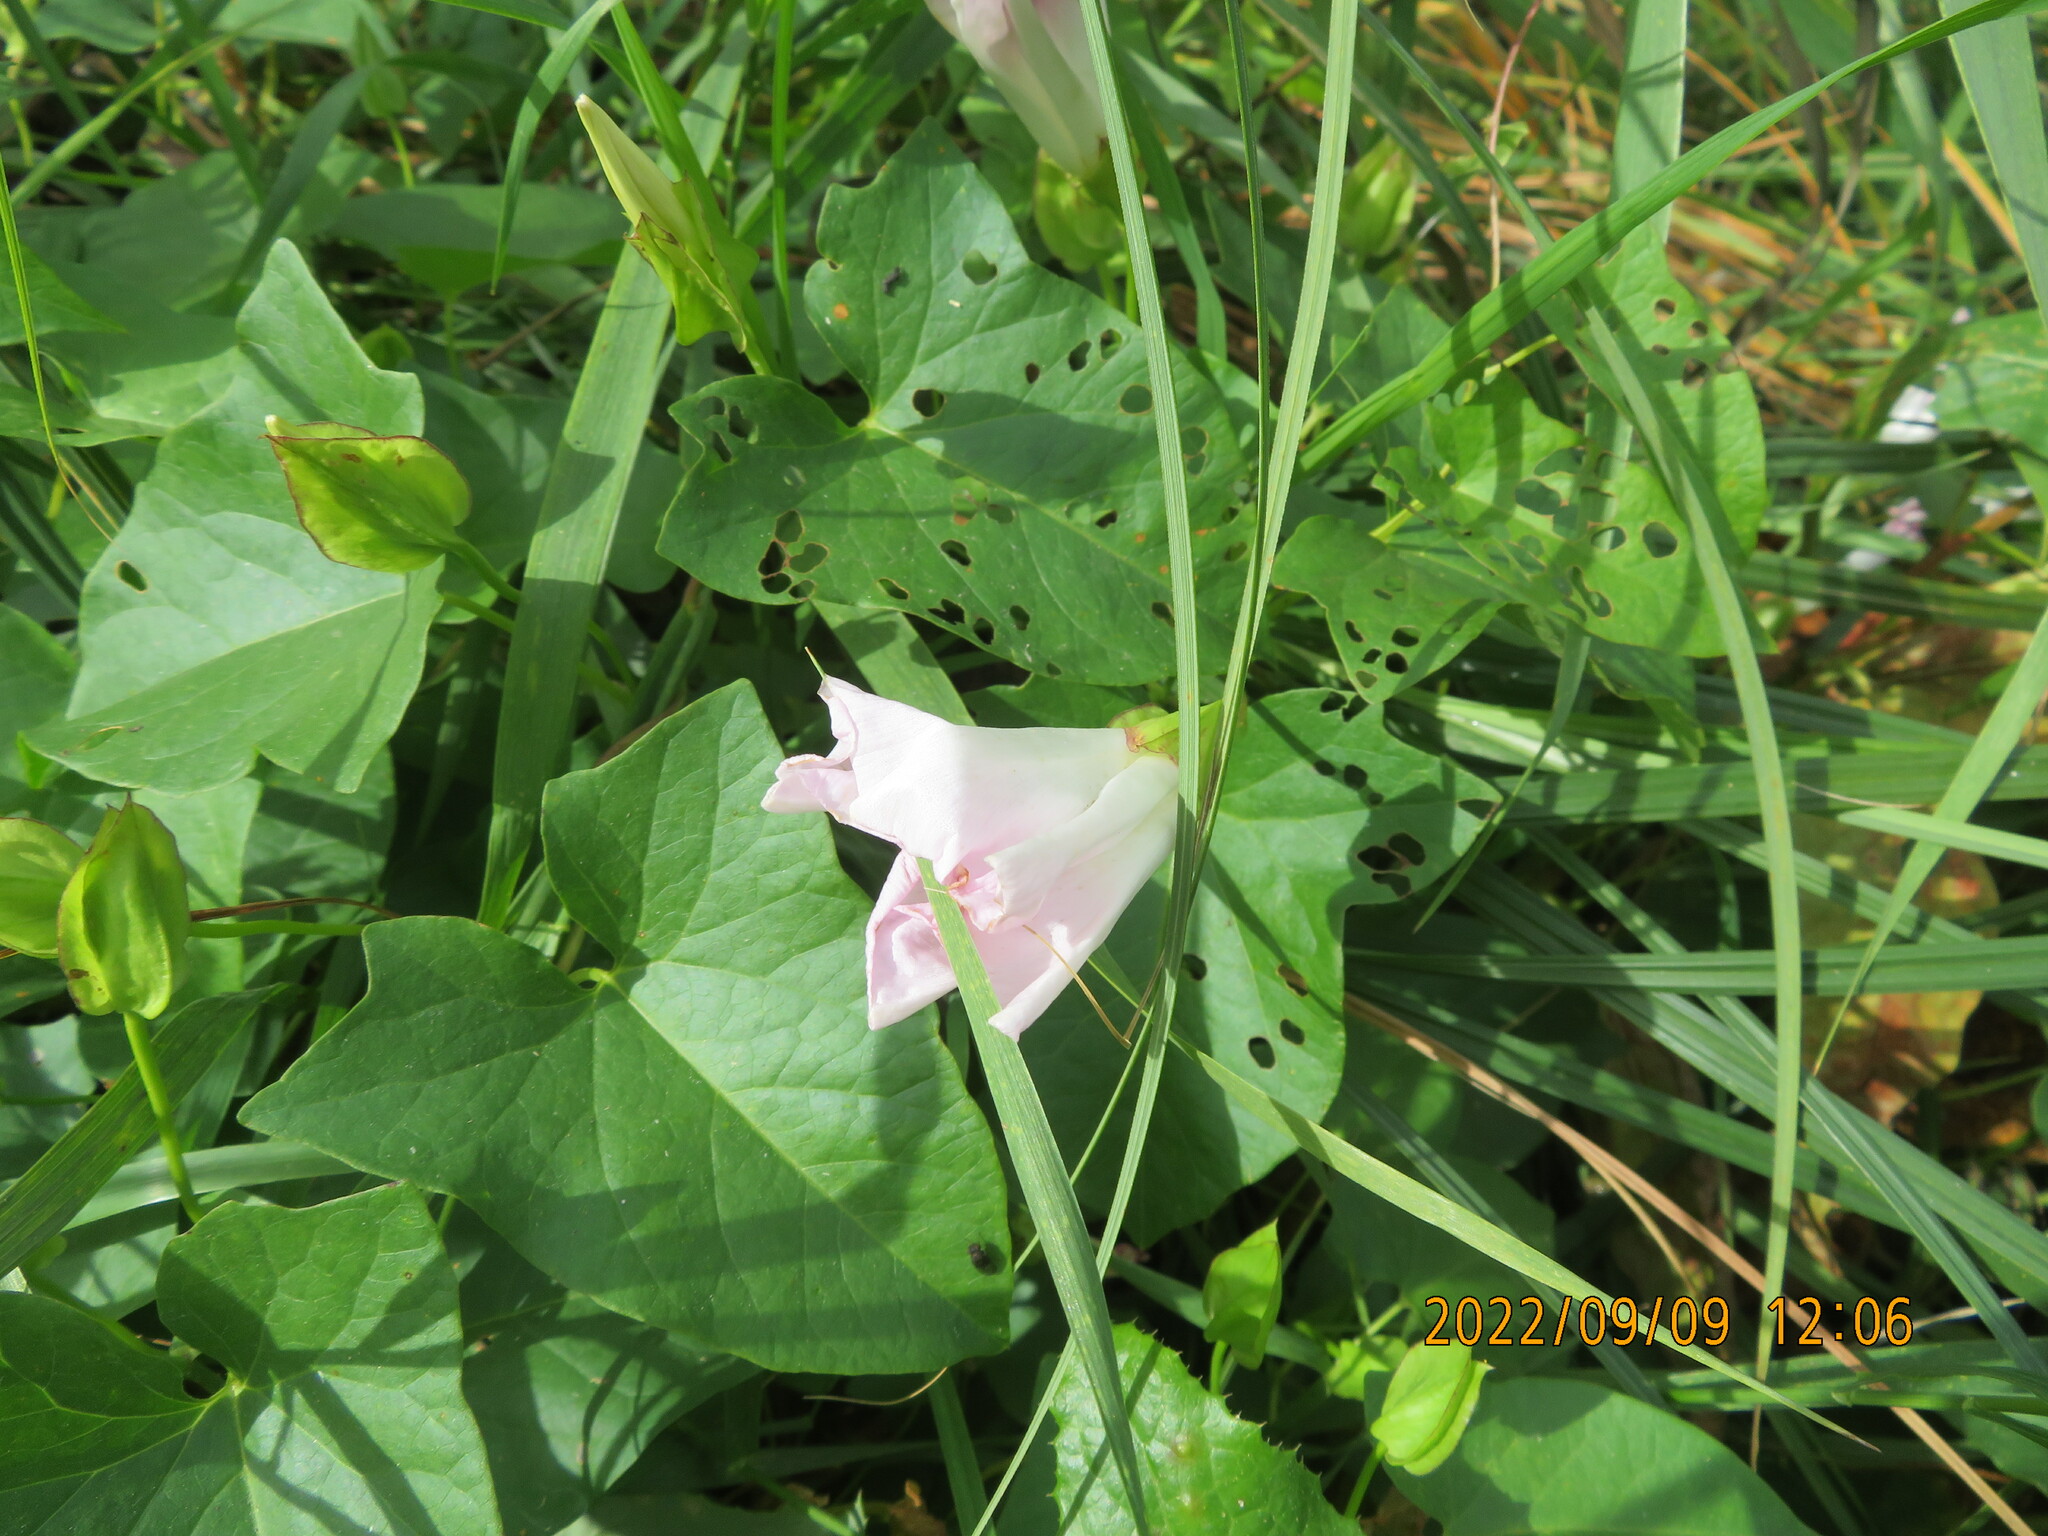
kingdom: Plantae
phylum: Tracheophyta
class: Magnoliopsida
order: Solanales
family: Convolvulaceae
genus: Calystegia
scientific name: Calystegia sepium
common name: Hedge bindweed
